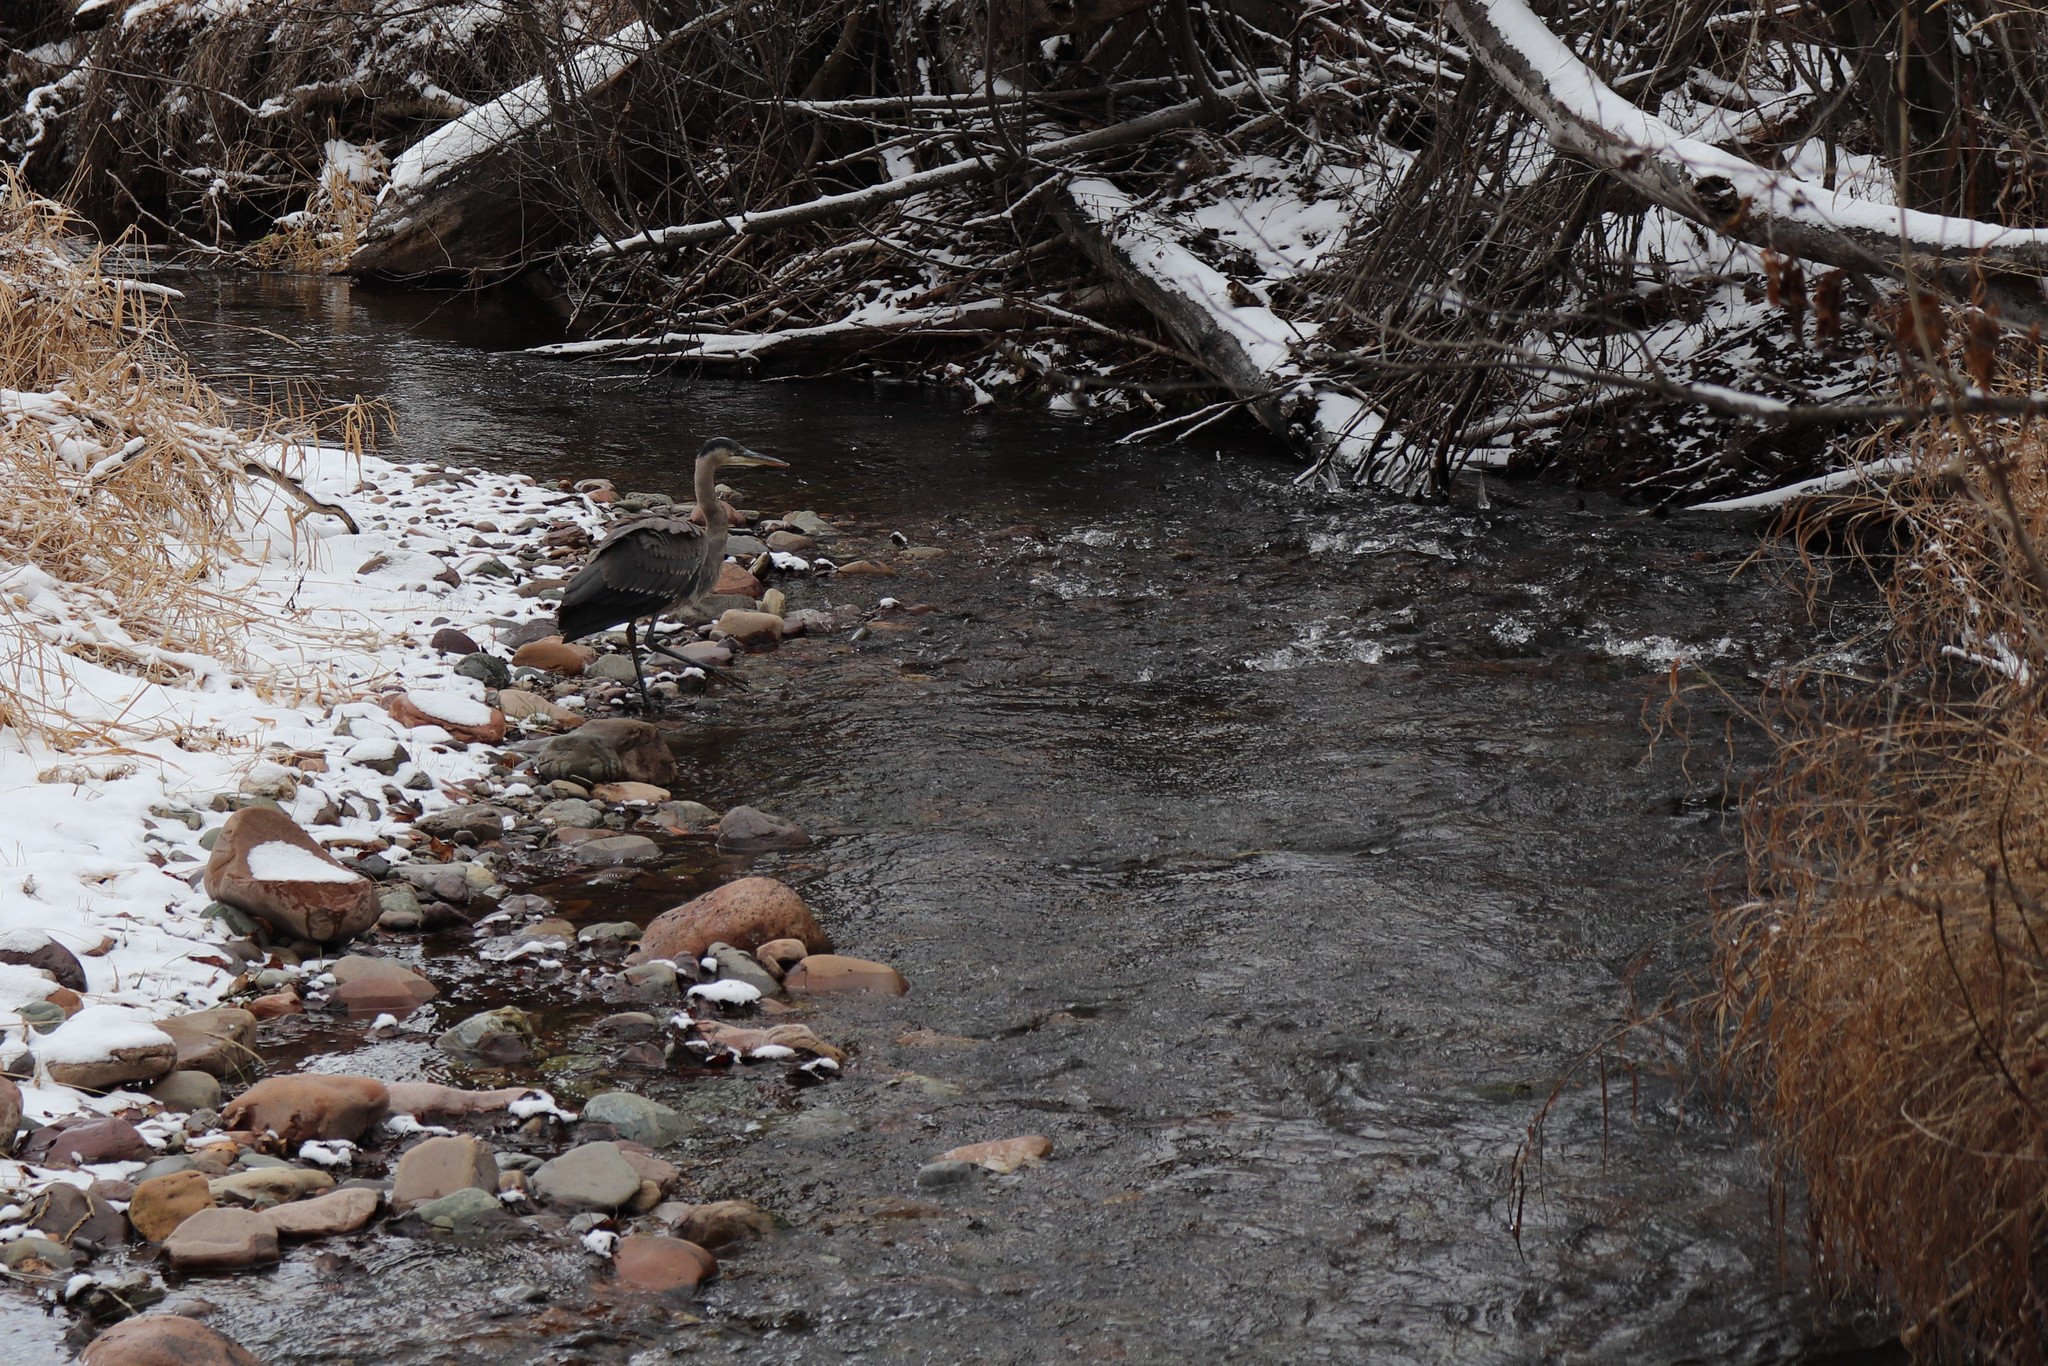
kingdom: Animalia
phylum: Chordata
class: Aves
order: Pelecaniformes
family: Ardeidae
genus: Ardea
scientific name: Ardea herodias
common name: Great blue heron
